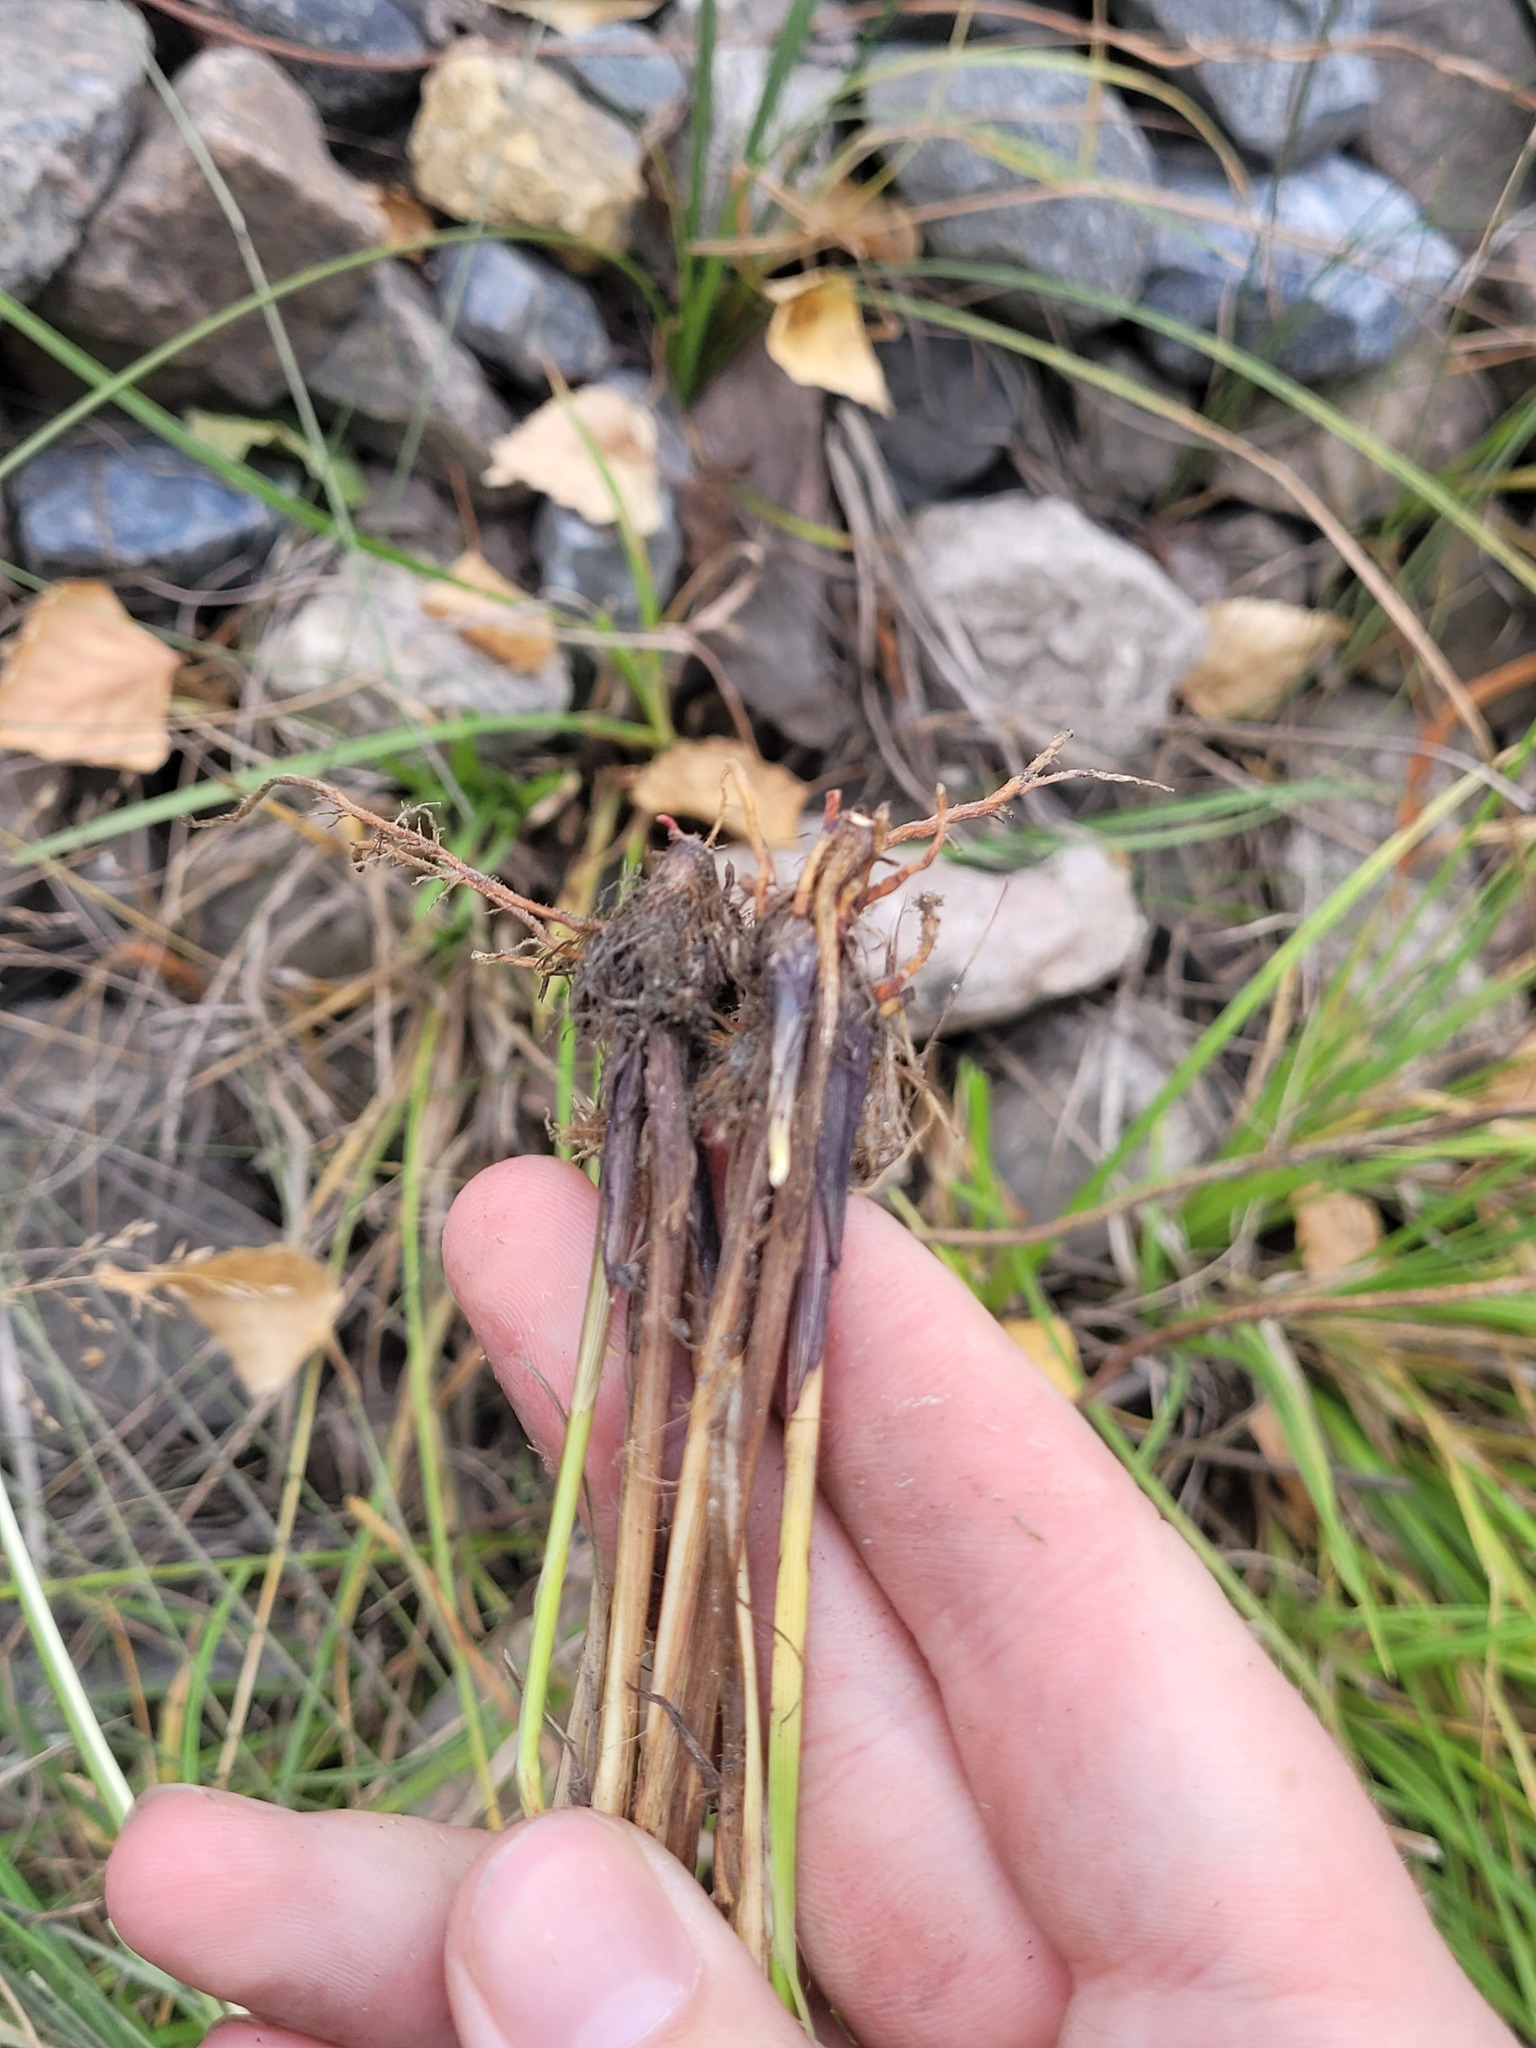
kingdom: Plantae
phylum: Tracheophyta
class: Liliopsida
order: Poales
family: Cyperaceae
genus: Carex
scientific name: Carex spicata
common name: Spiked sedge
